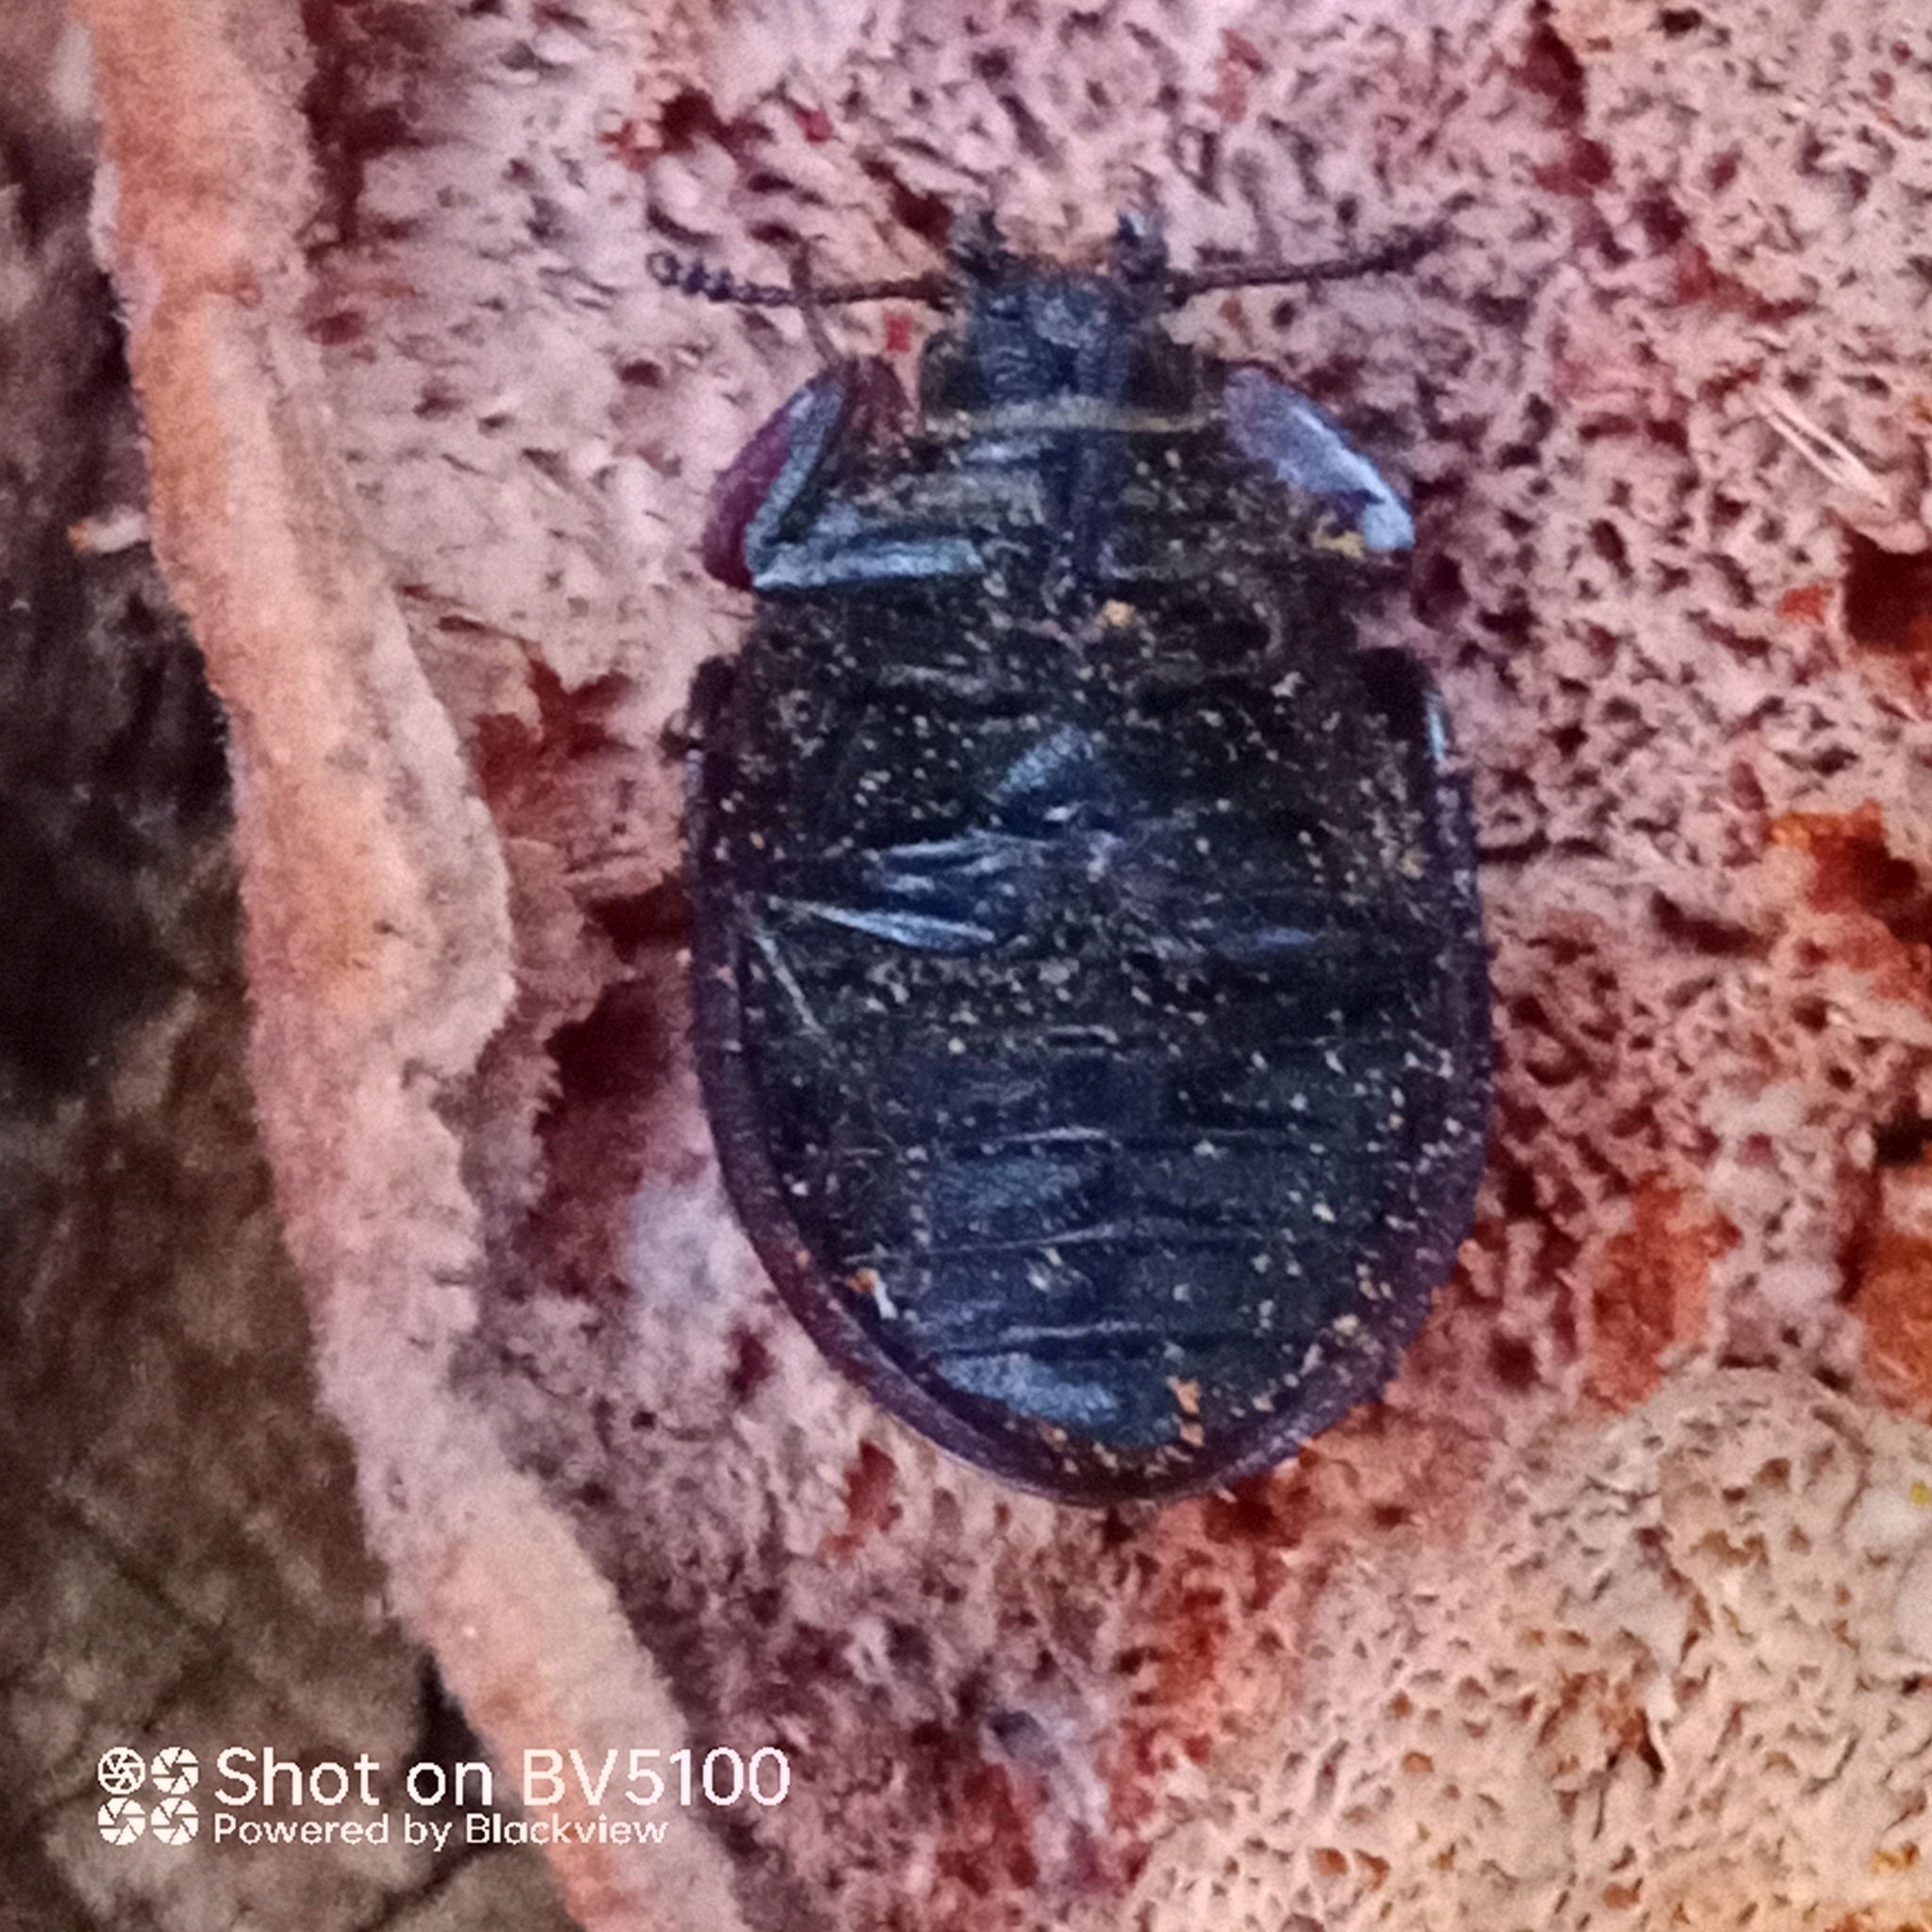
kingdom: Animalia
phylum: Arthropoda
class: Insecta
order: Coleoptera
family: Trogossitidae
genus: Peltis
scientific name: Peltis grossa
